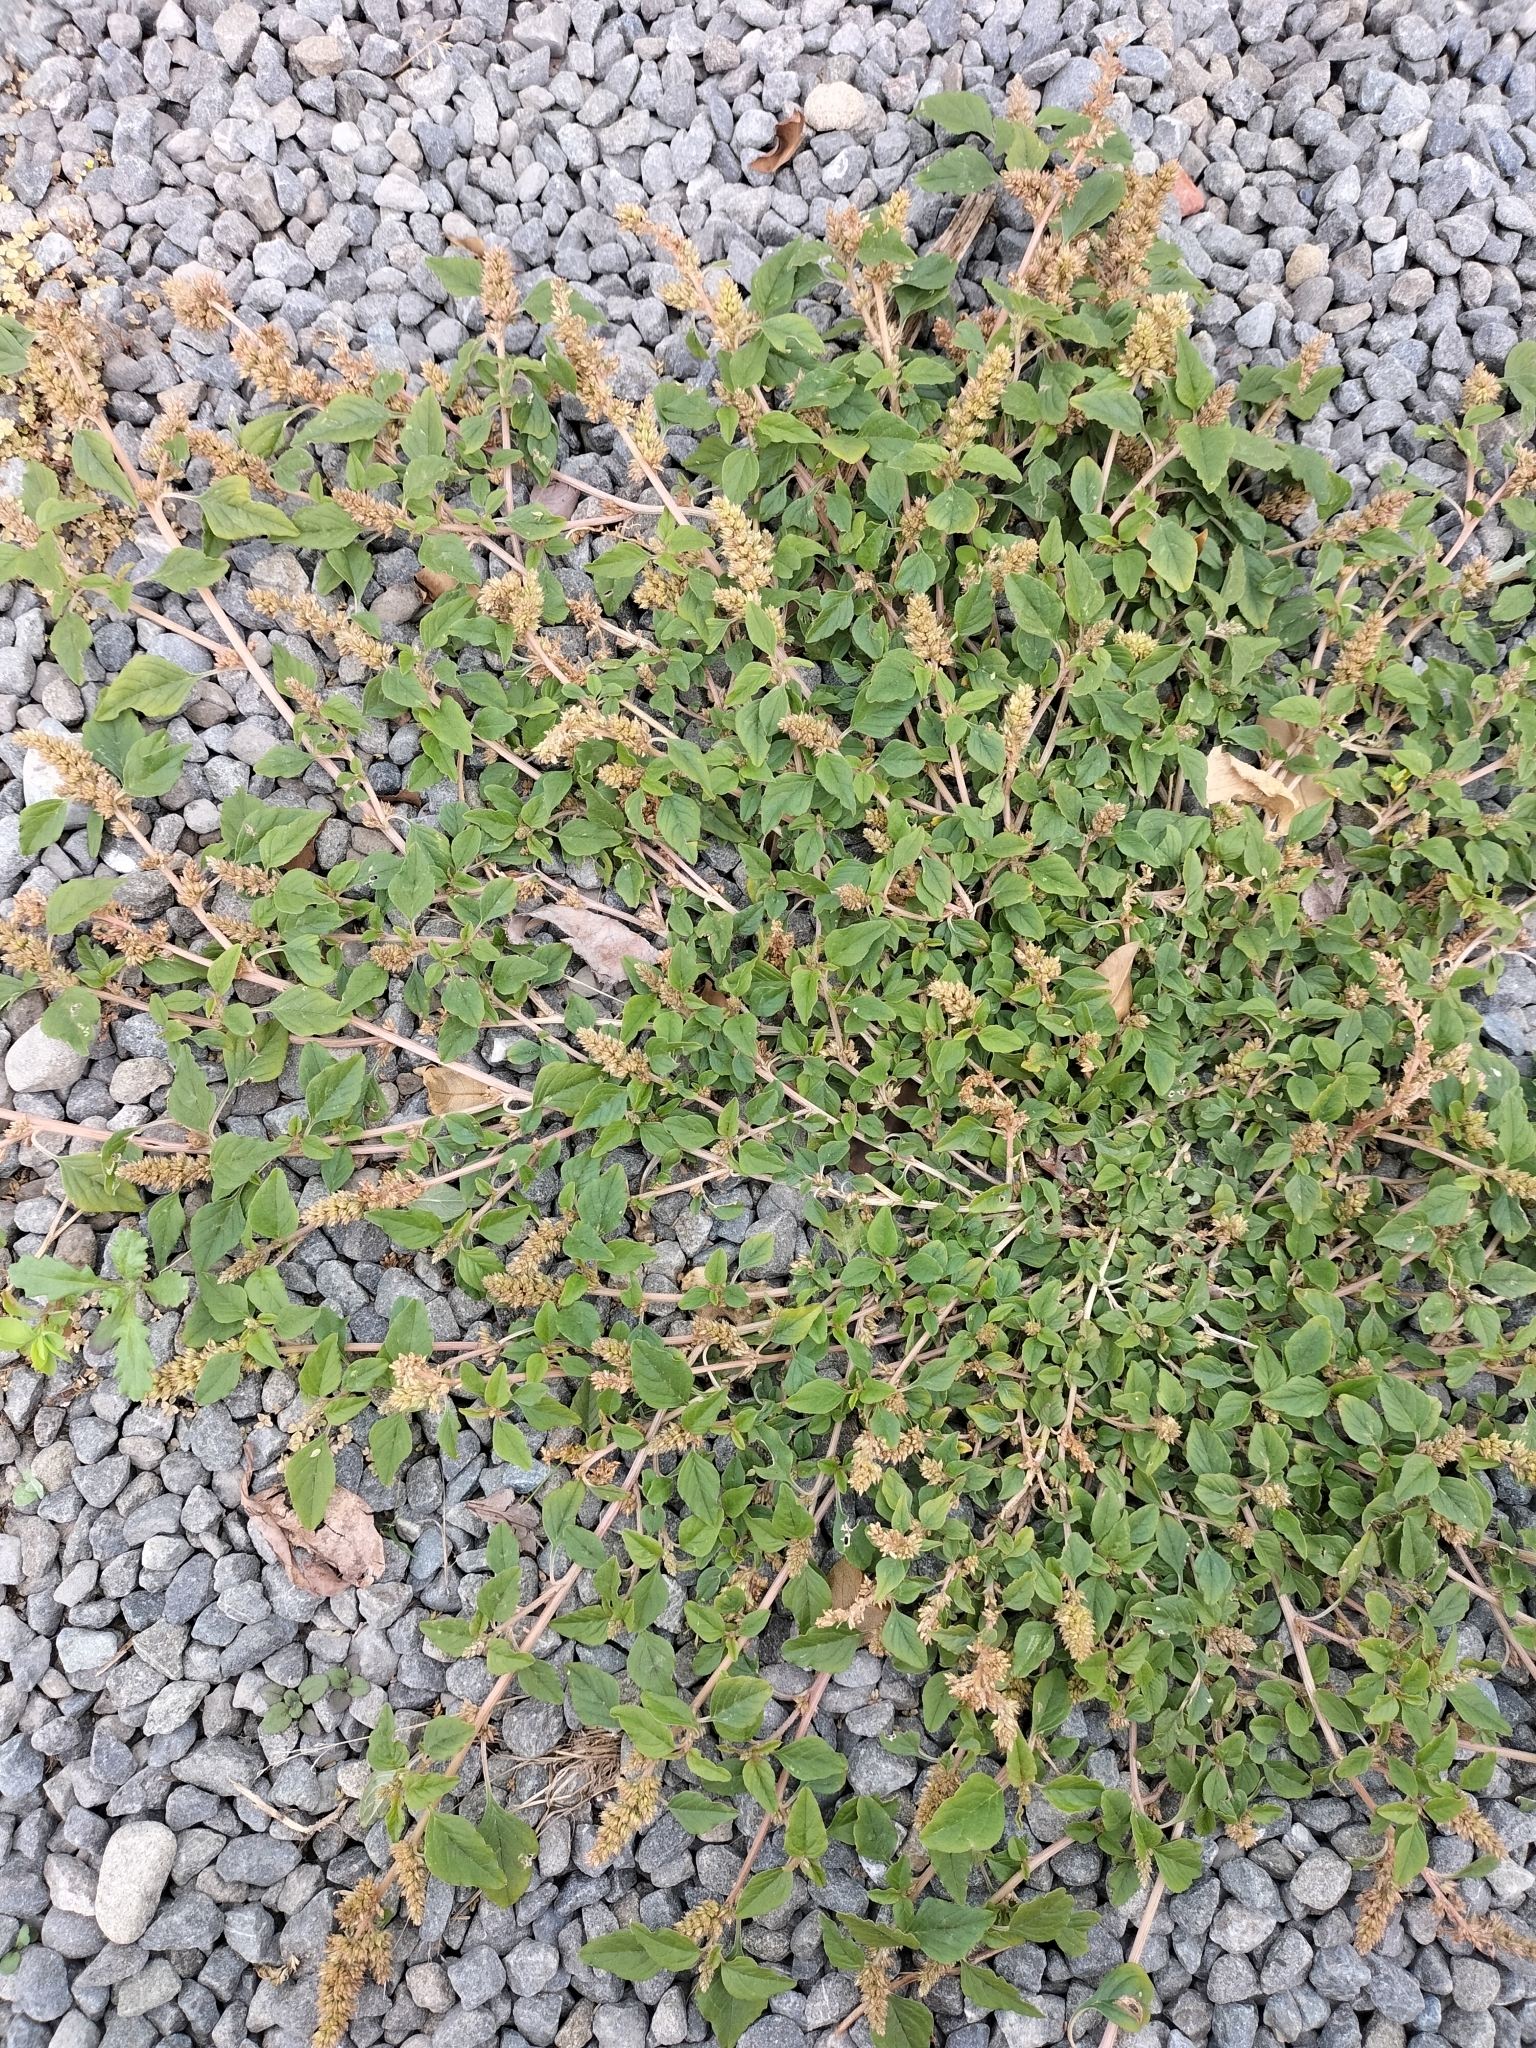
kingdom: Plantae
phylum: Tracheophyta
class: Magnoliopsida
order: Caryophyllales
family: Amaranthaceae
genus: Amaranthus
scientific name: Amaranthus deflexus
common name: Perennial pigweed
